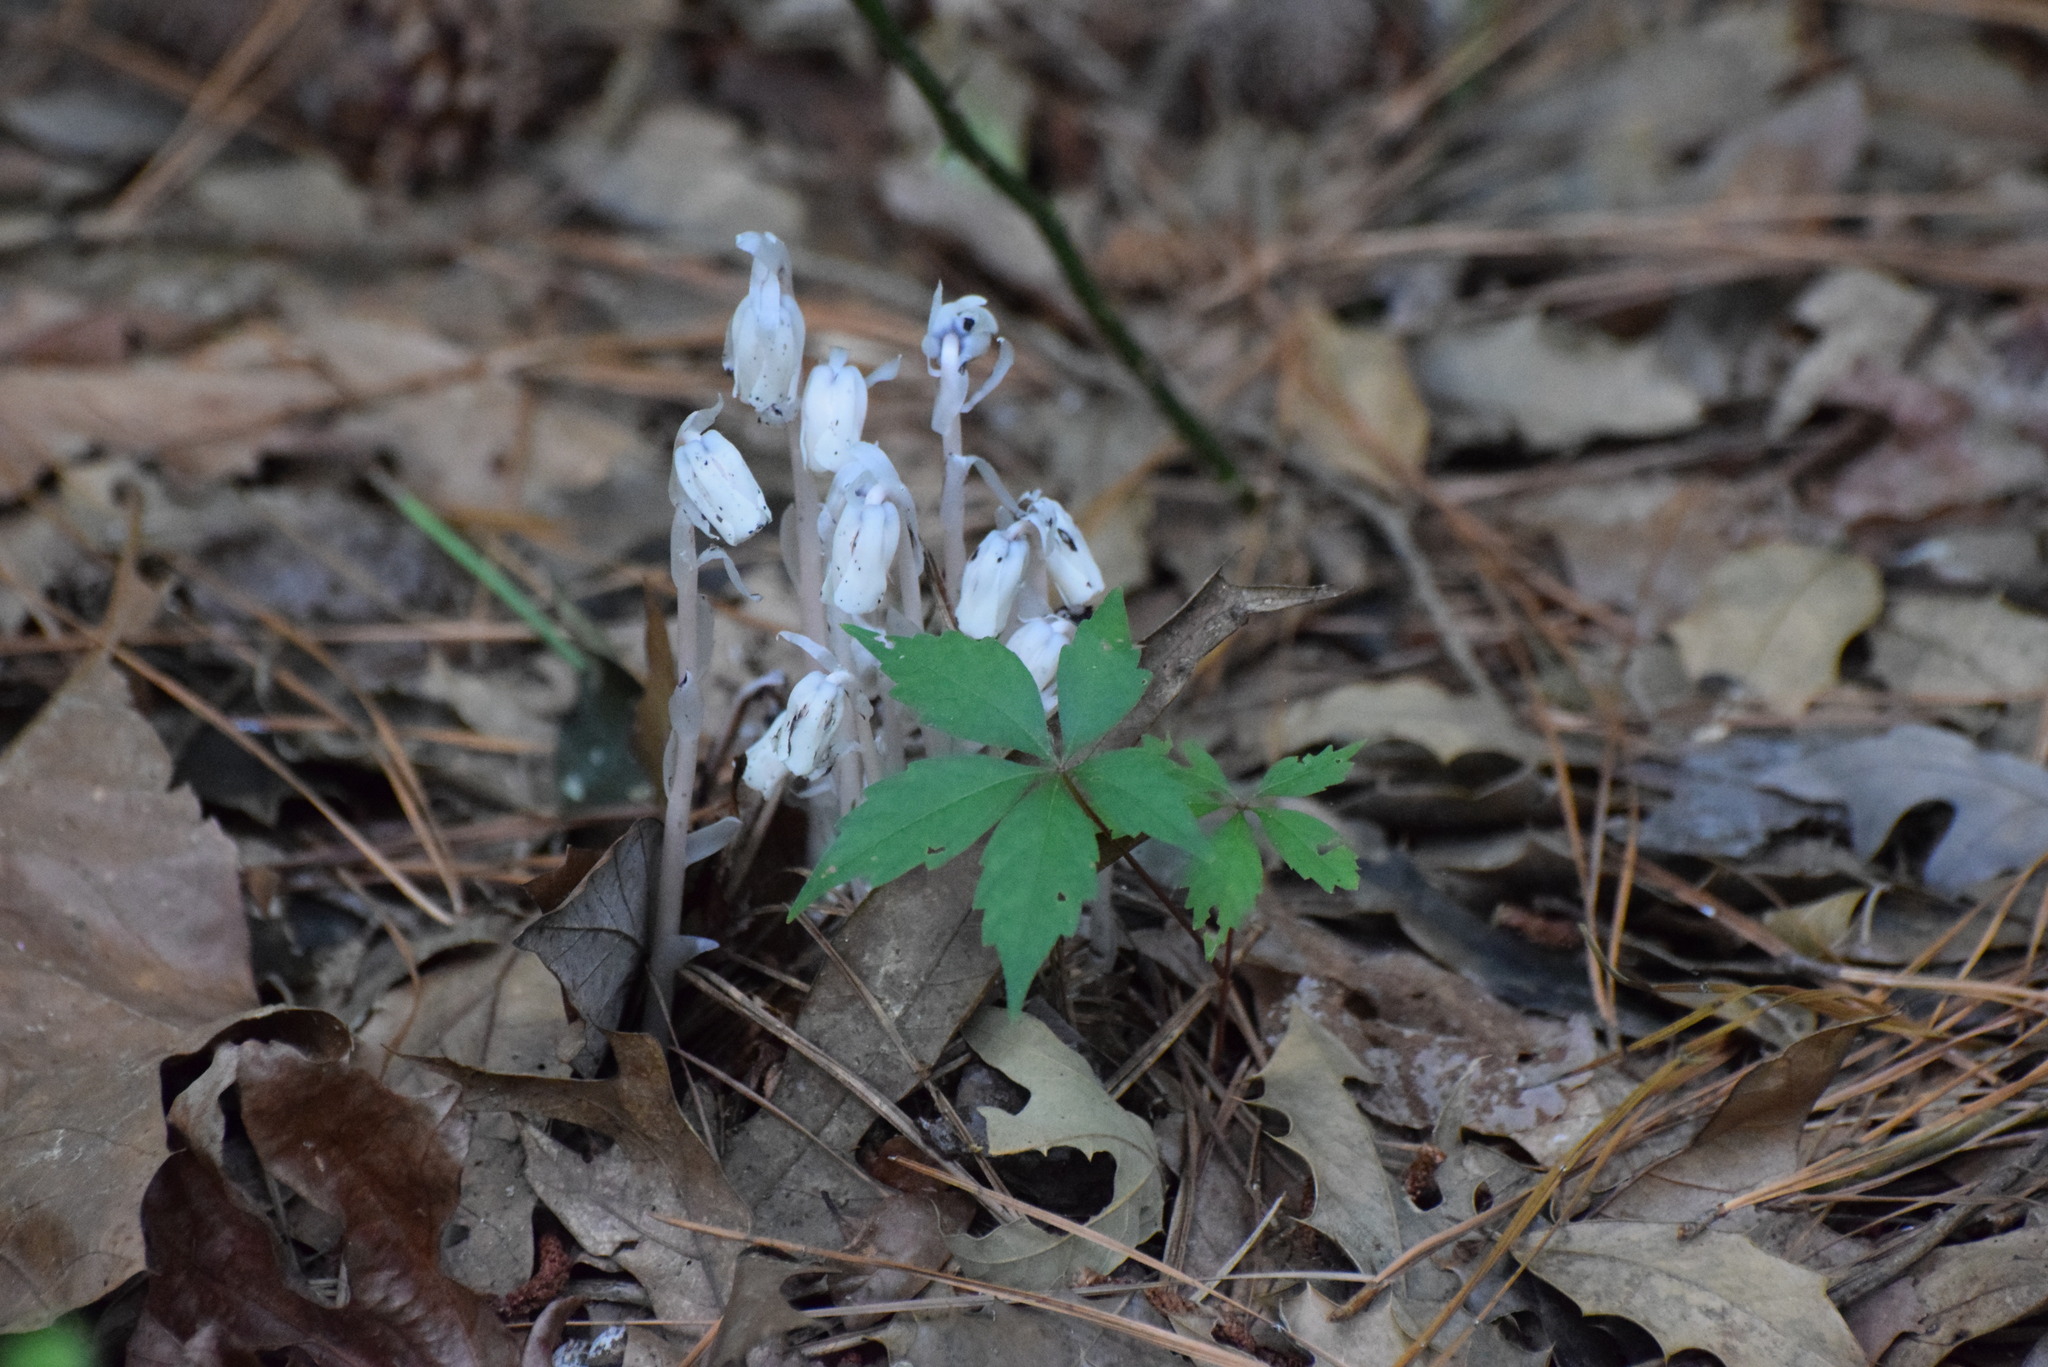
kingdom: Plantae
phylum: Tracheophyta
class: Magnoliopsida
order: Ericales
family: Ericaceae
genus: Monotropa
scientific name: Monotropa uniflora
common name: Convulsion root
